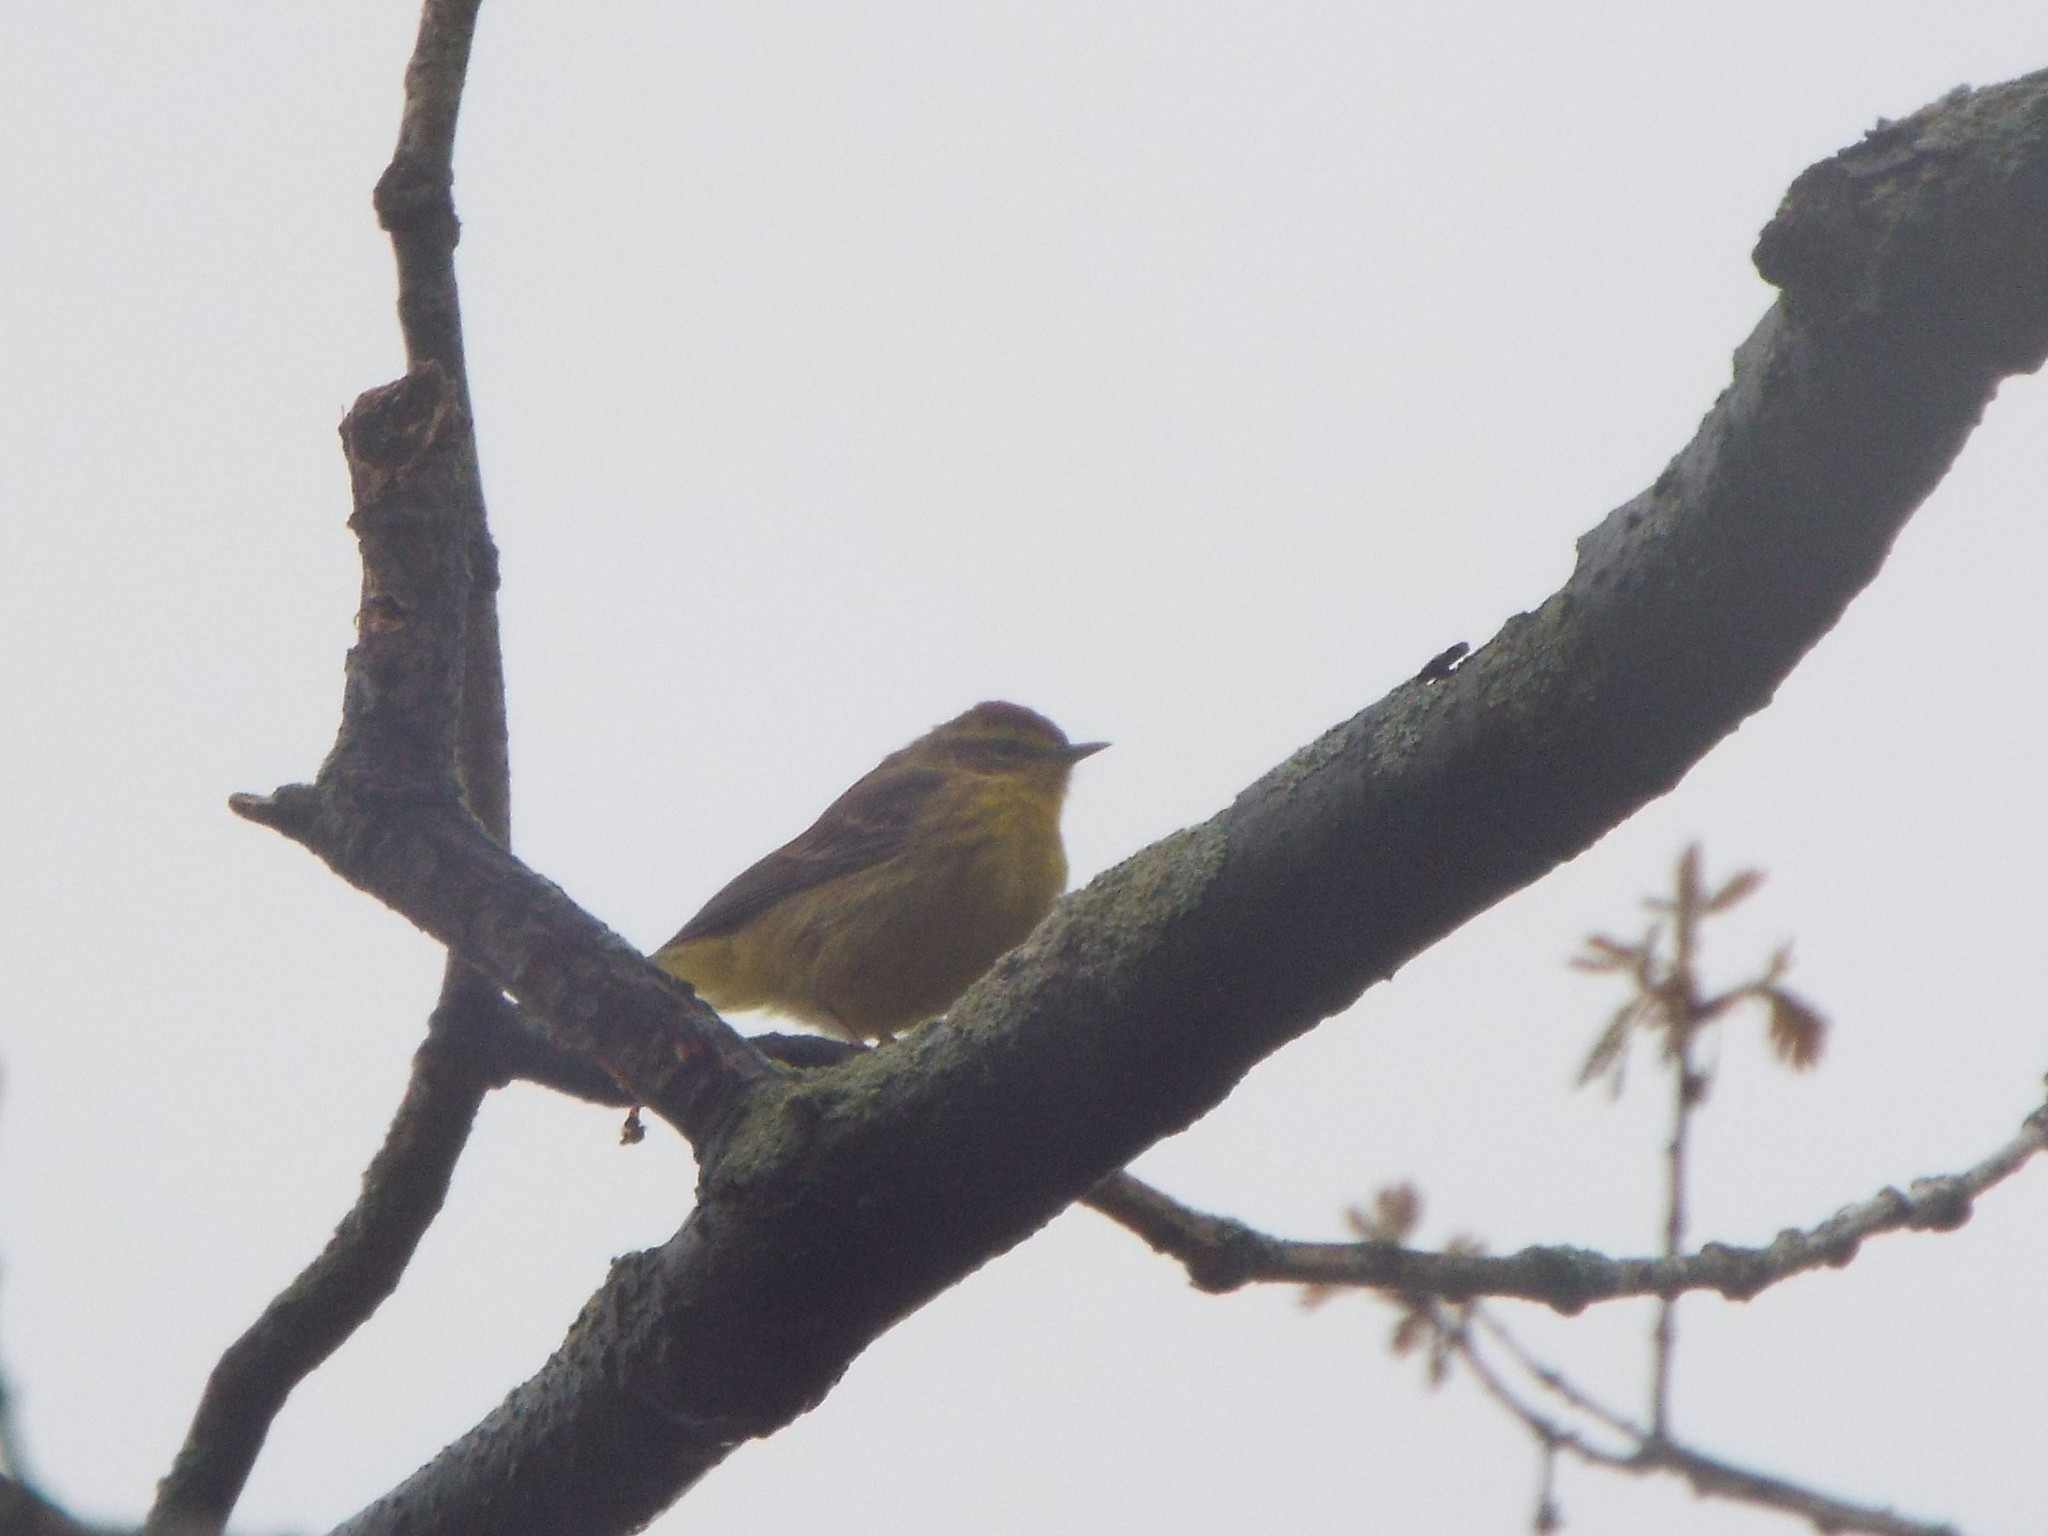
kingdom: Animalia
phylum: Chordata
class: Aves
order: Passeriformes
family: Parulidae
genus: Setophaga
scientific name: Setophaga palmarum
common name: Palm warbler
